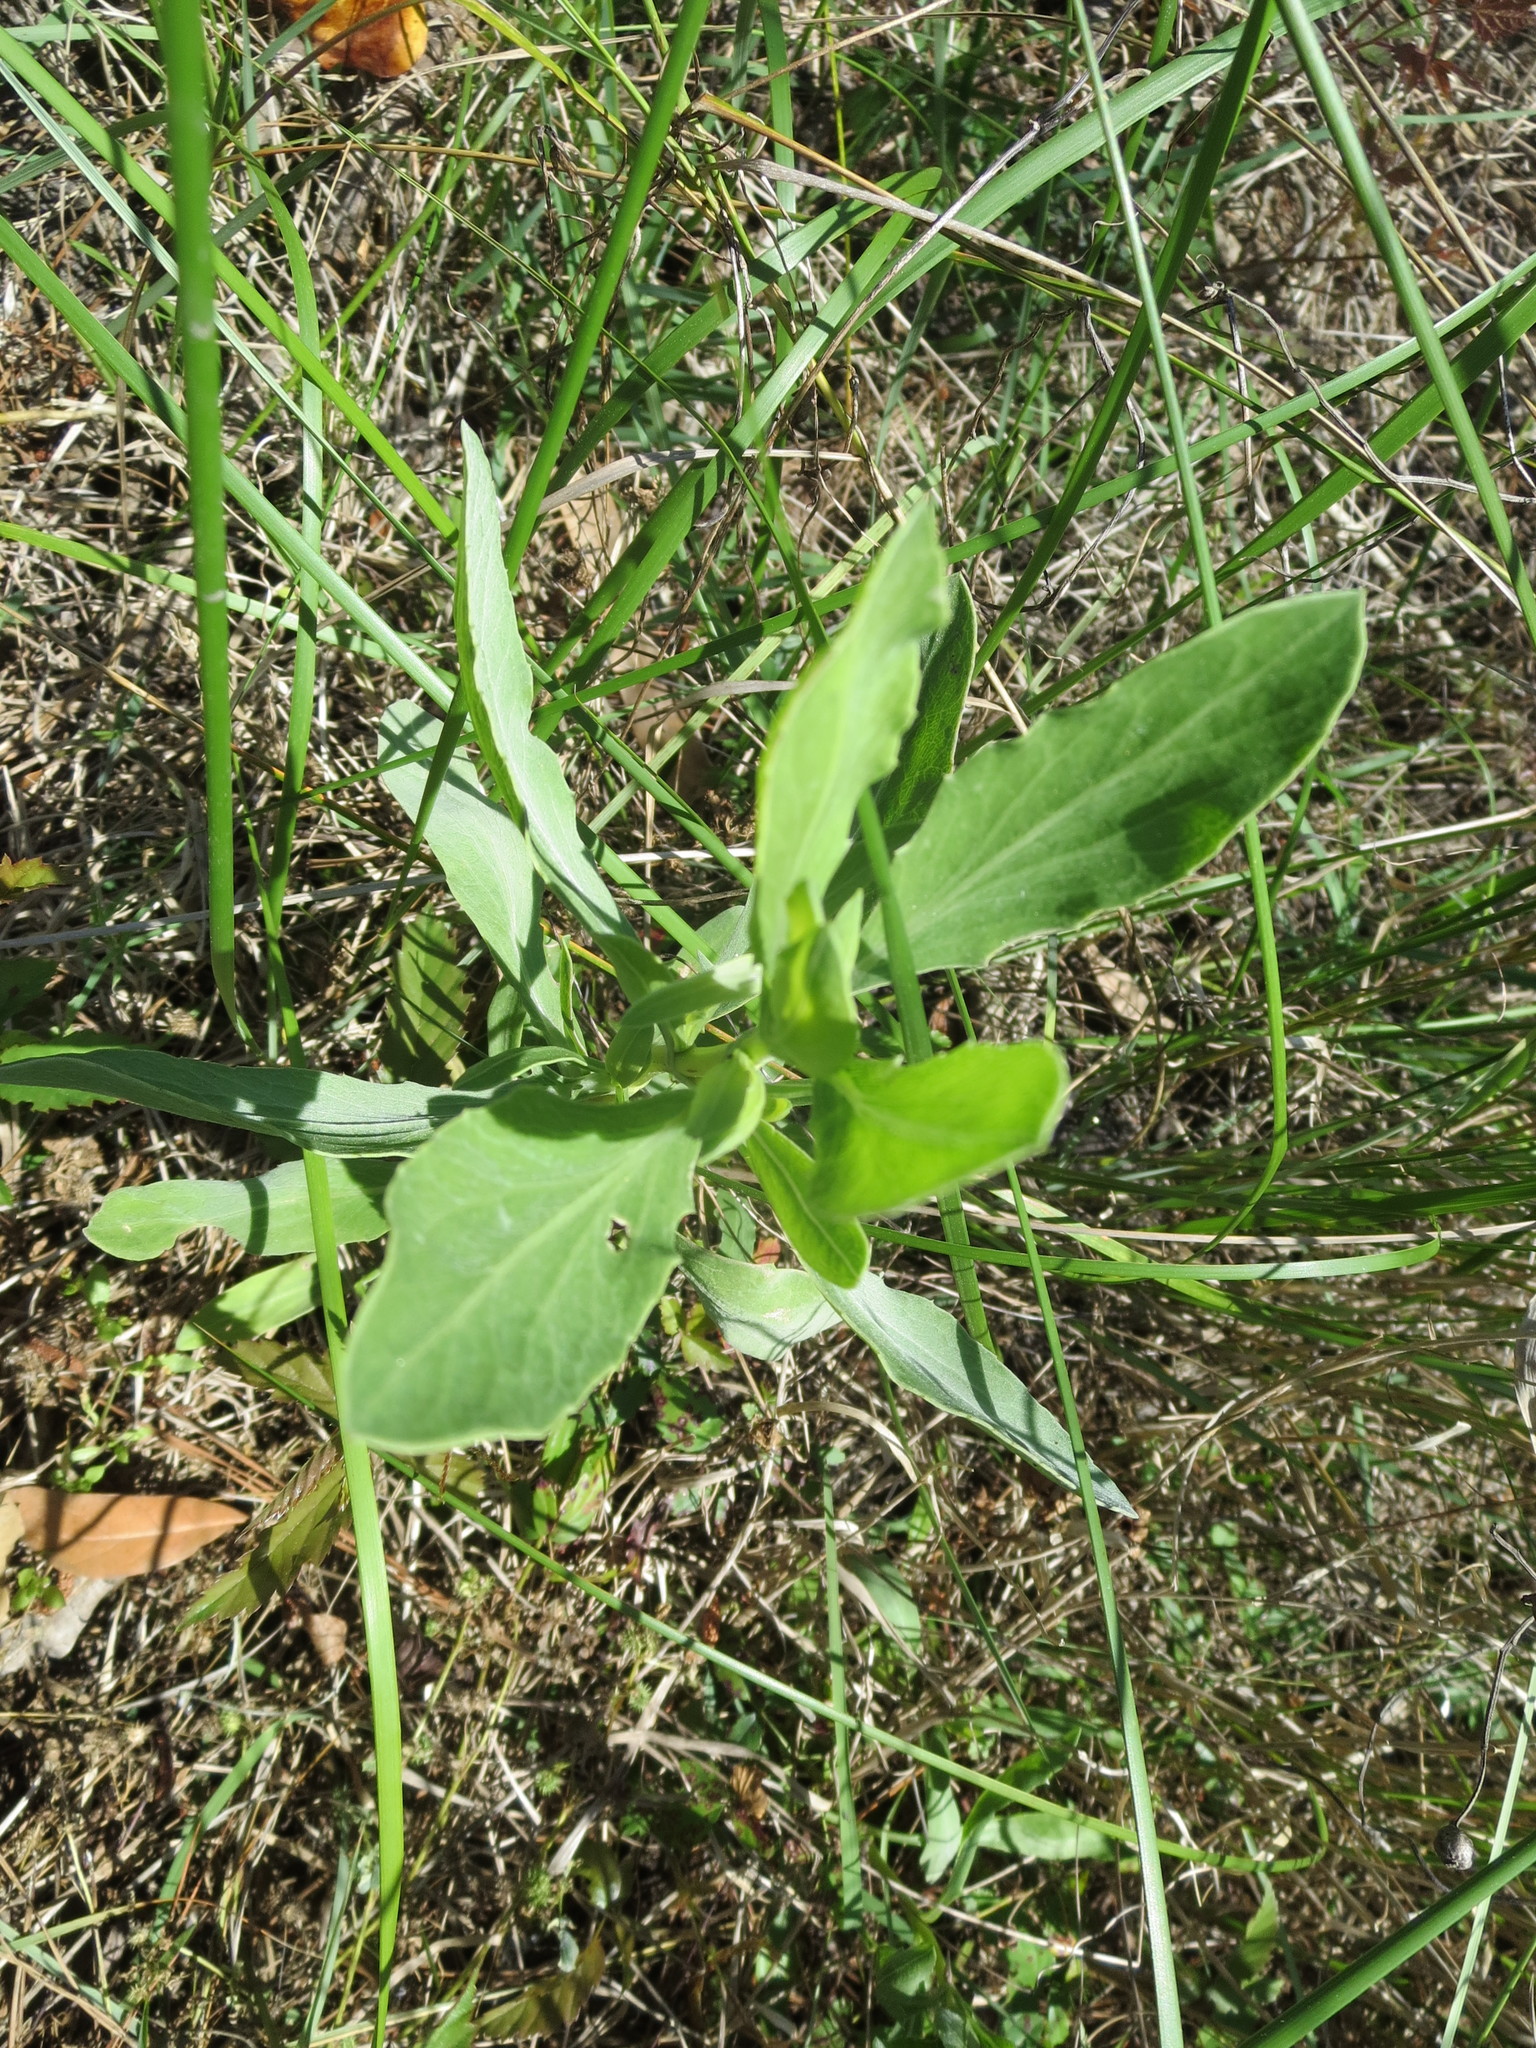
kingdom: Plantae
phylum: Tracheophyta
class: Magnoliopsida
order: Asterales
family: Asteraceae
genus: Borrichia
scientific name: Borrichia frutescens
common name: Sea oxeye
